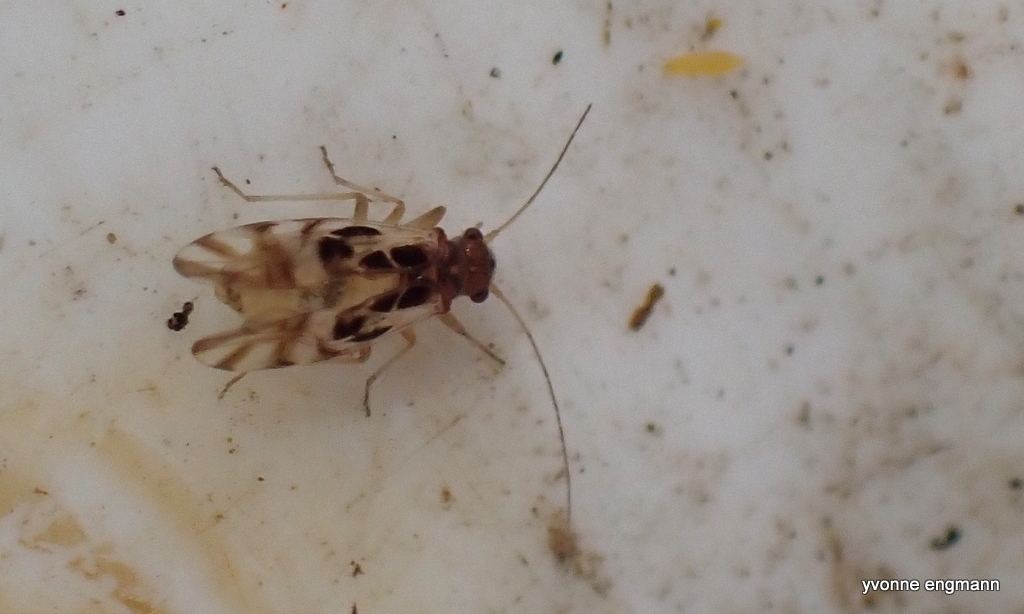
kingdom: Animalia
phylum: Arthropoda
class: Insecta
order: Psocodea
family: Stenopsocidae
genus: Graphopsocus
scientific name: Graphopsocus cruciatus
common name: Lizard bark louse
